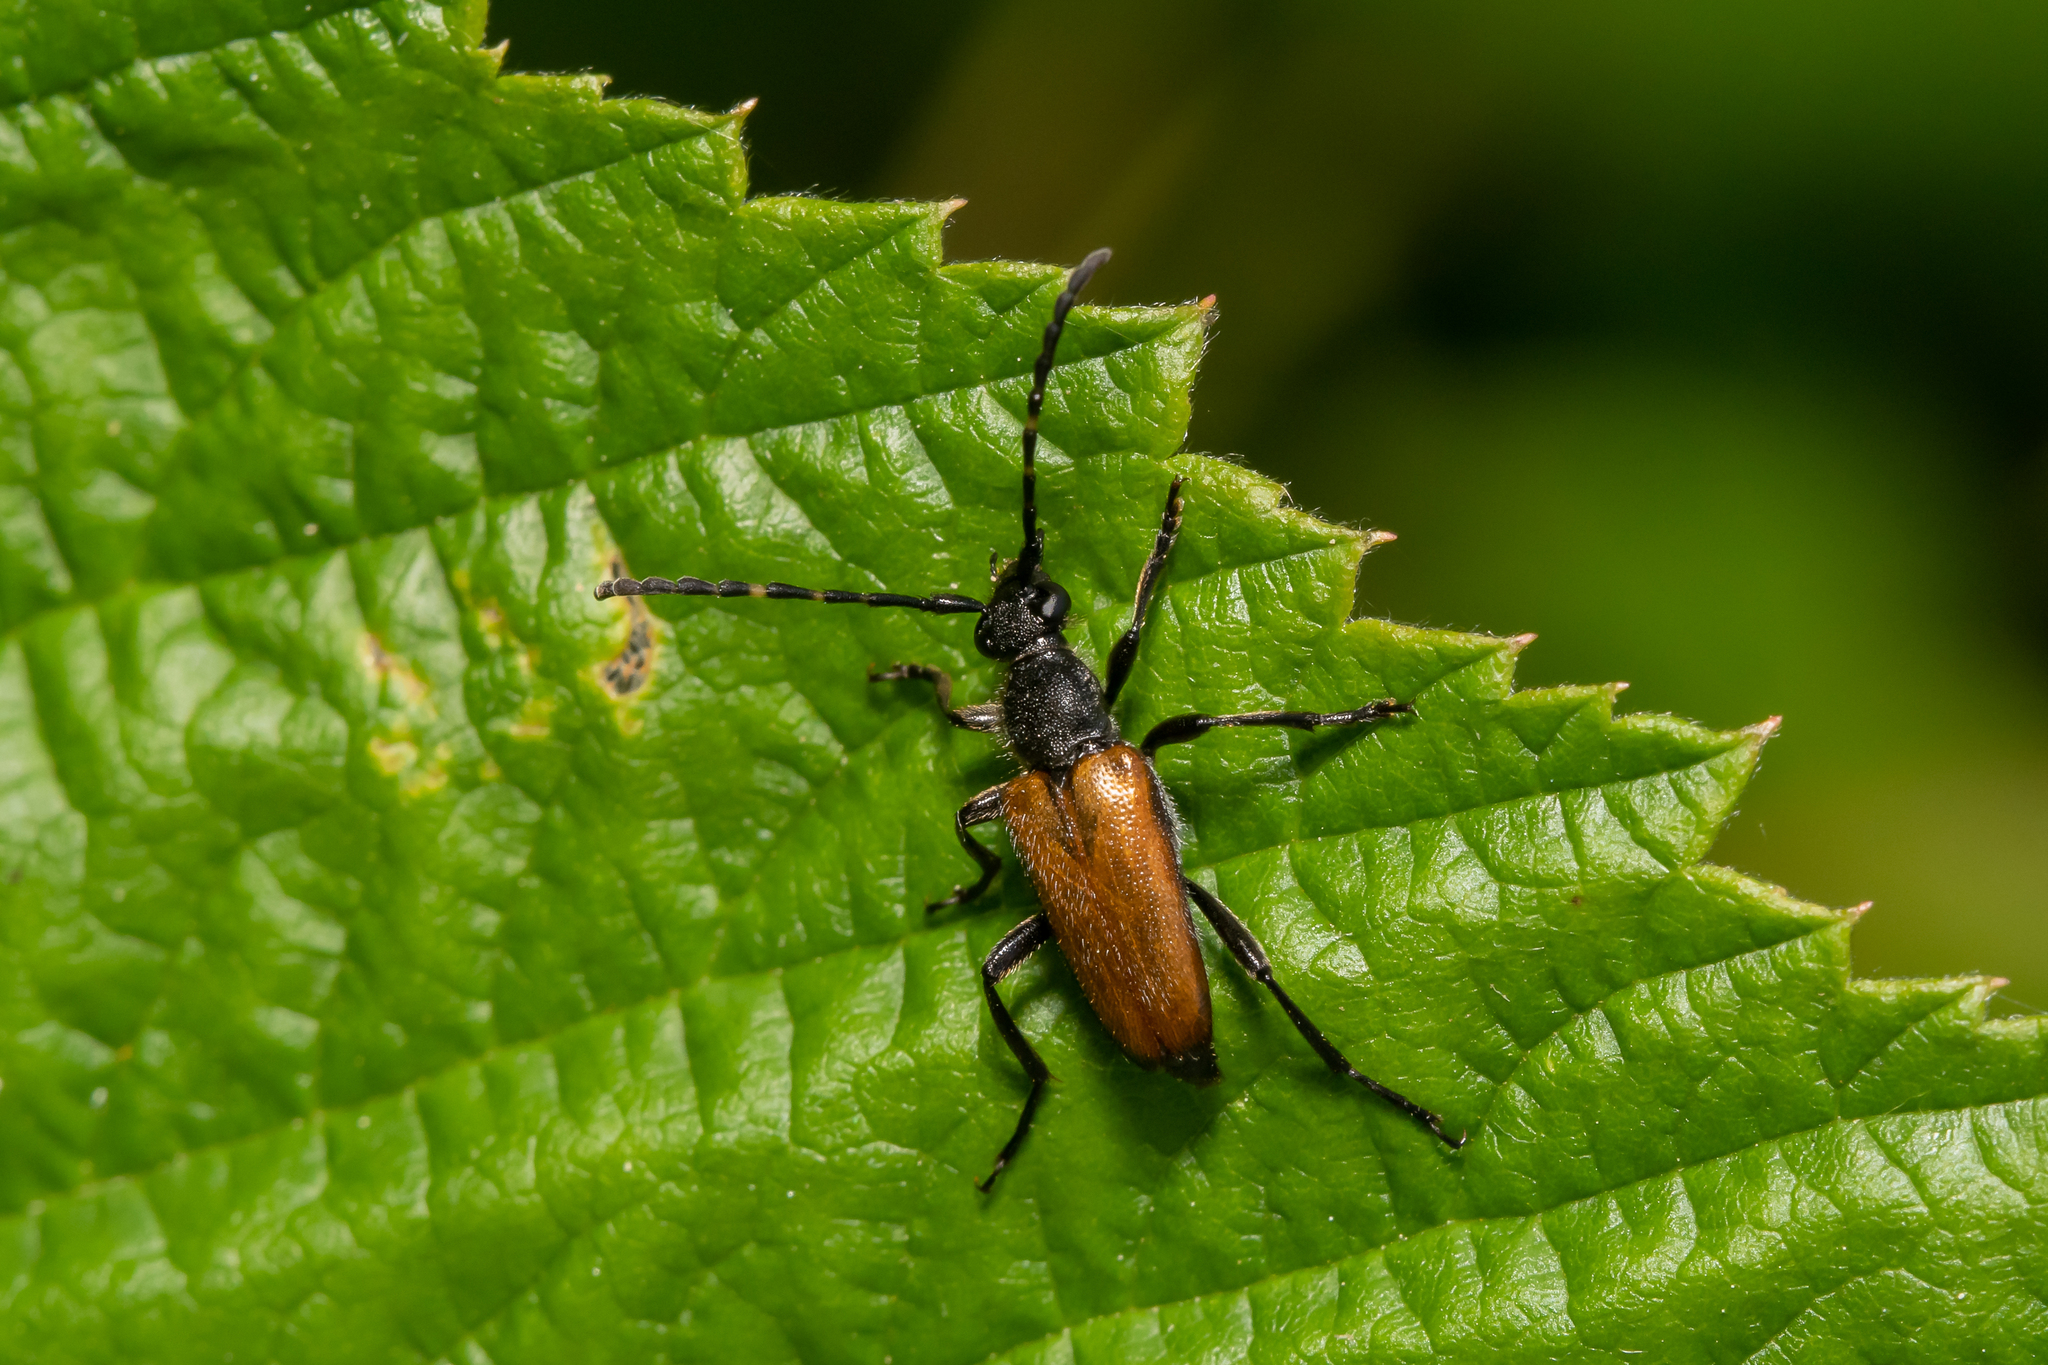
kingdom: Animalia
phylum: Arthropoda
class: Insecta
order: Coleoptera
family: Cerambycidae
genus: Paracorymbia
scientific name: Paracorymbia maculicornis
